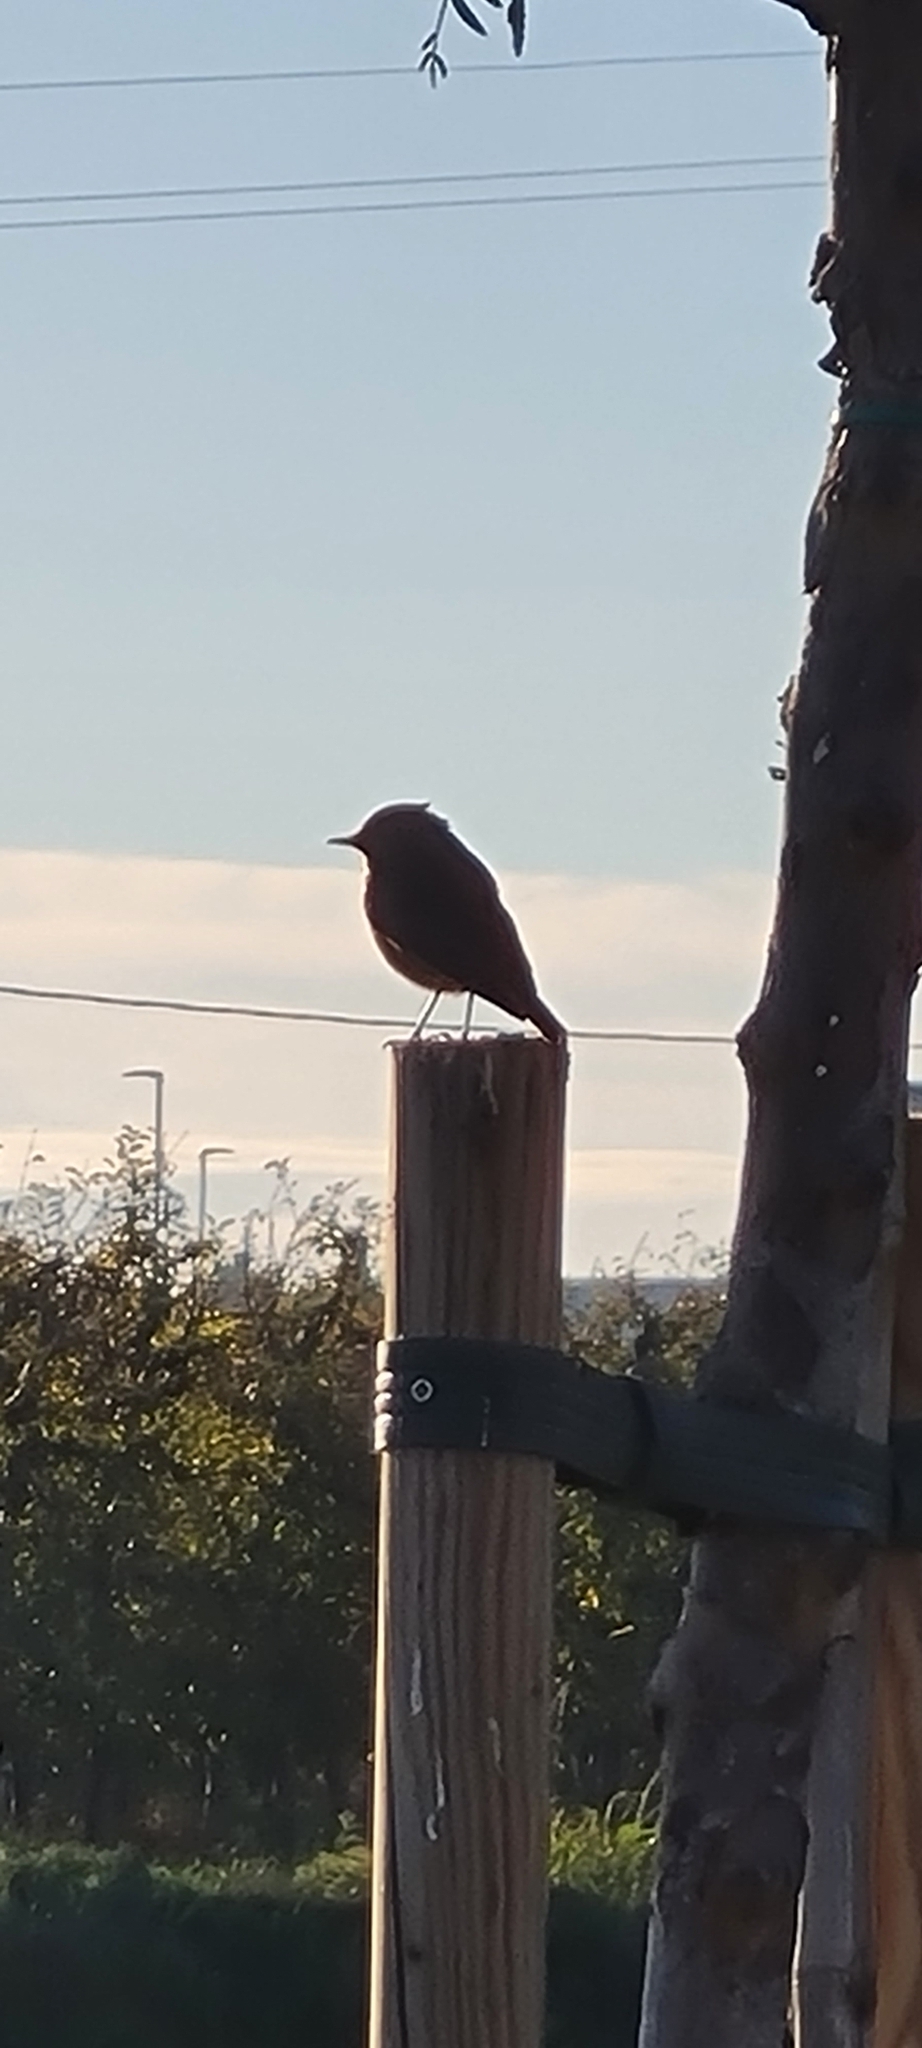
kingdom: Animalia
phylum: Chordata
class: Aves
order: Passeriformes
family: Muscicapidae
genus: Phoenicurus
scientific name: Phoenicurus ochruros
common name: Black redstart
